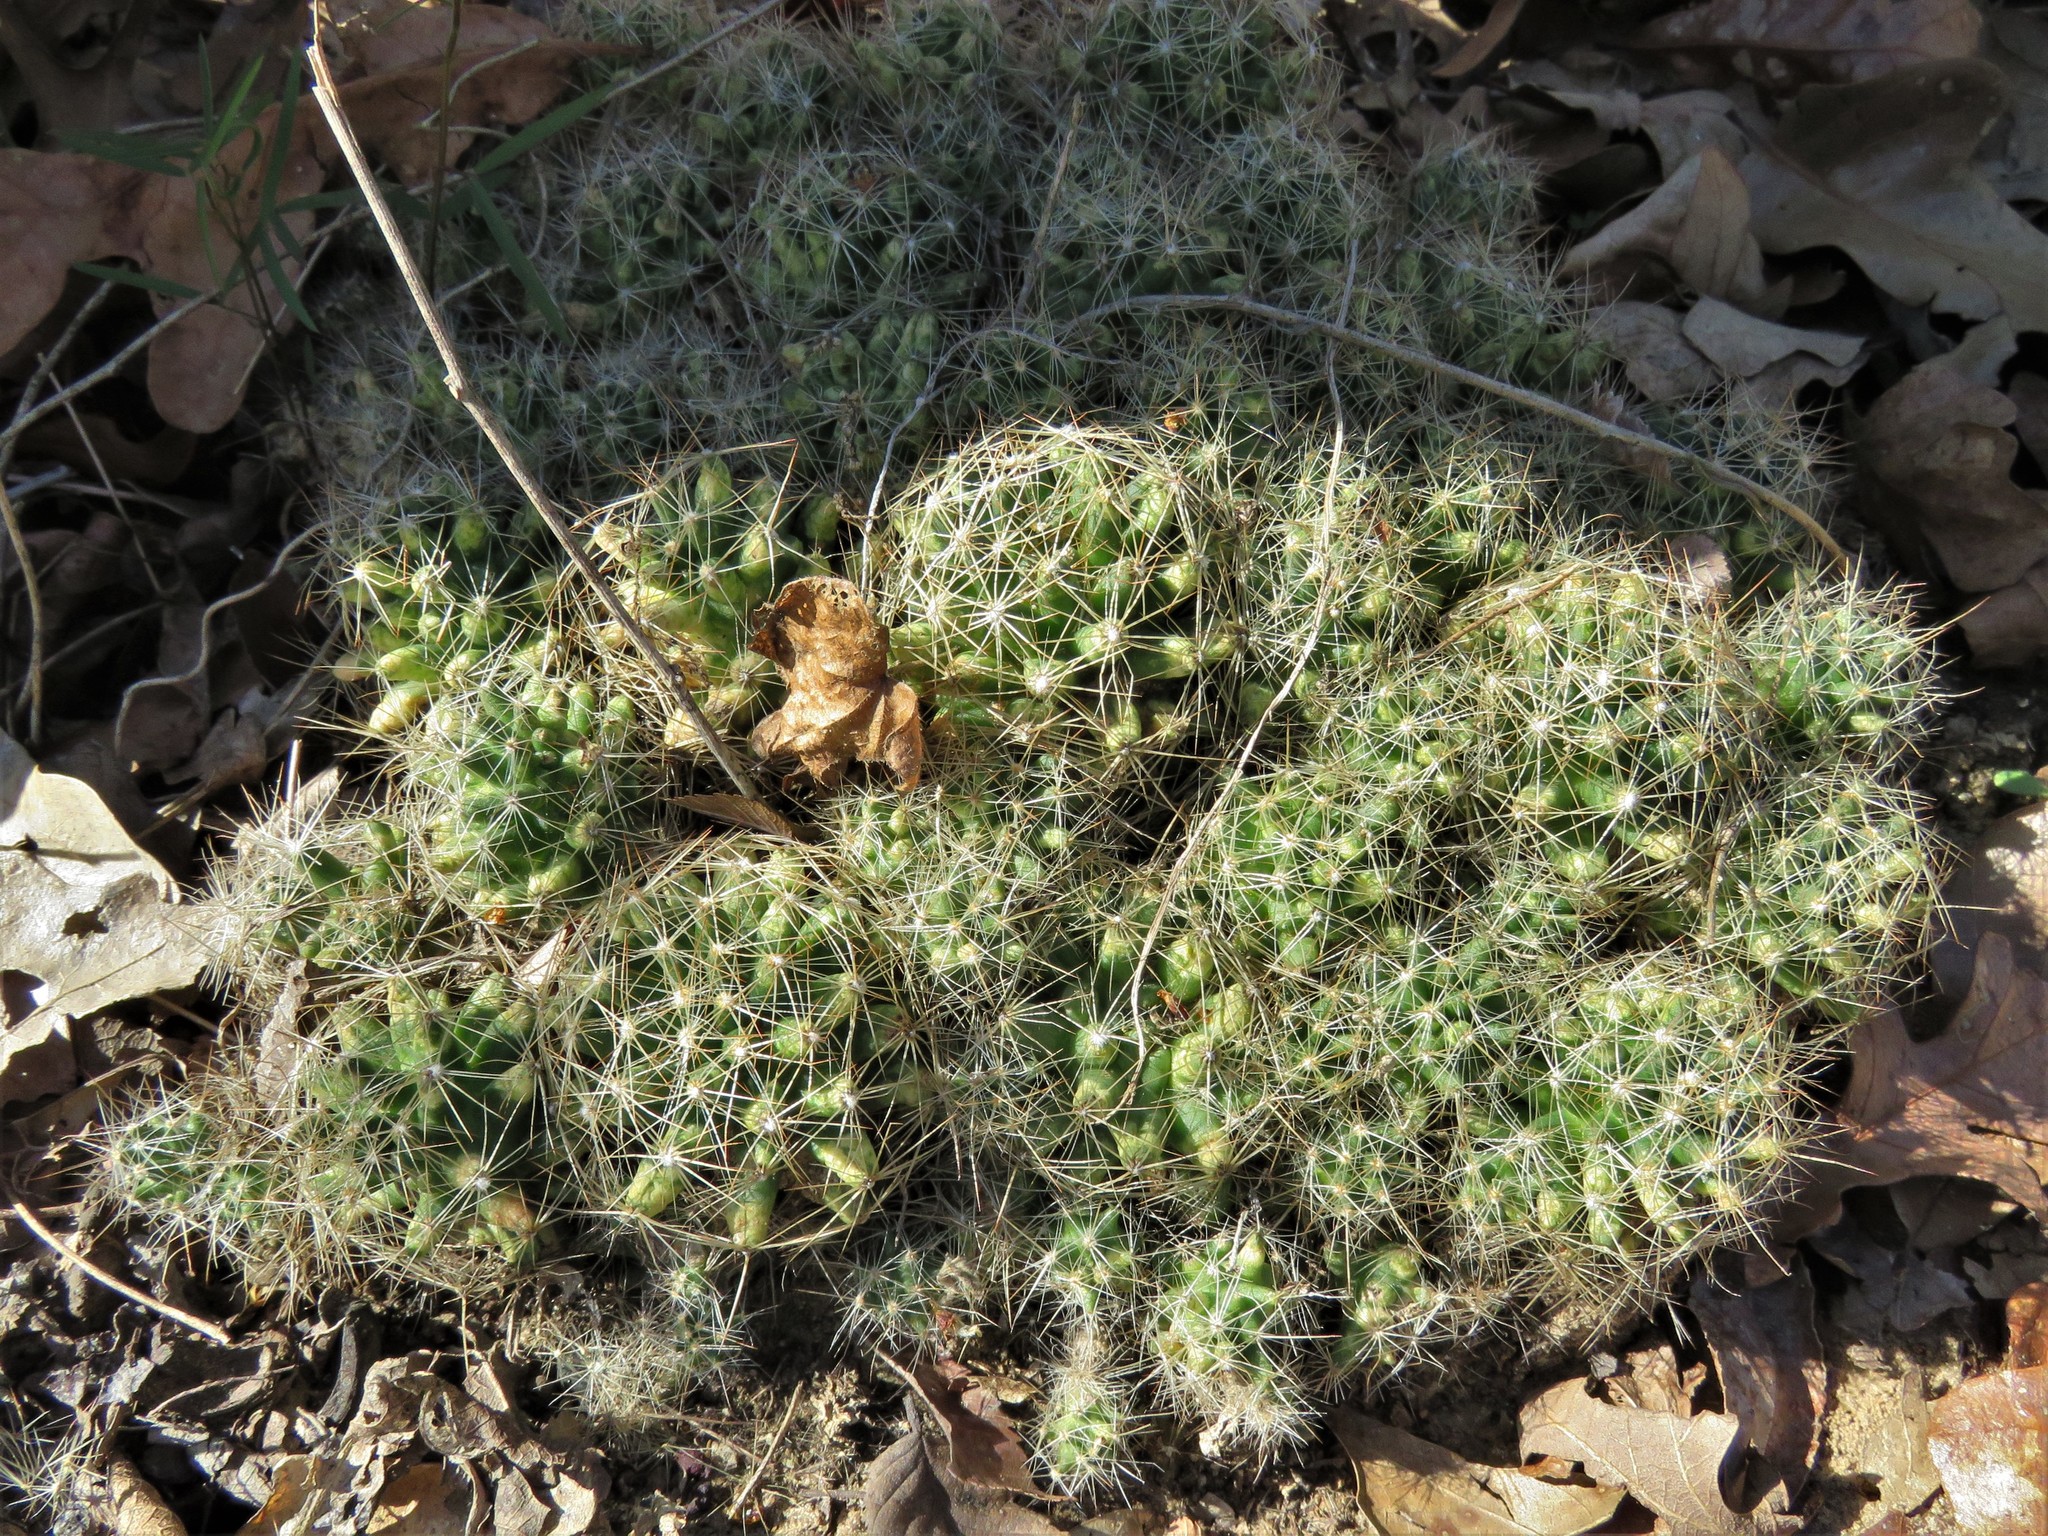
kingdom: Plantae
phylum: Tracheophyta
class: Magnoliopsida
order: Caryophyllales
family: Cactaceae
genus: Pelecyphora
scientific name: Pelecyphora missouriensis
